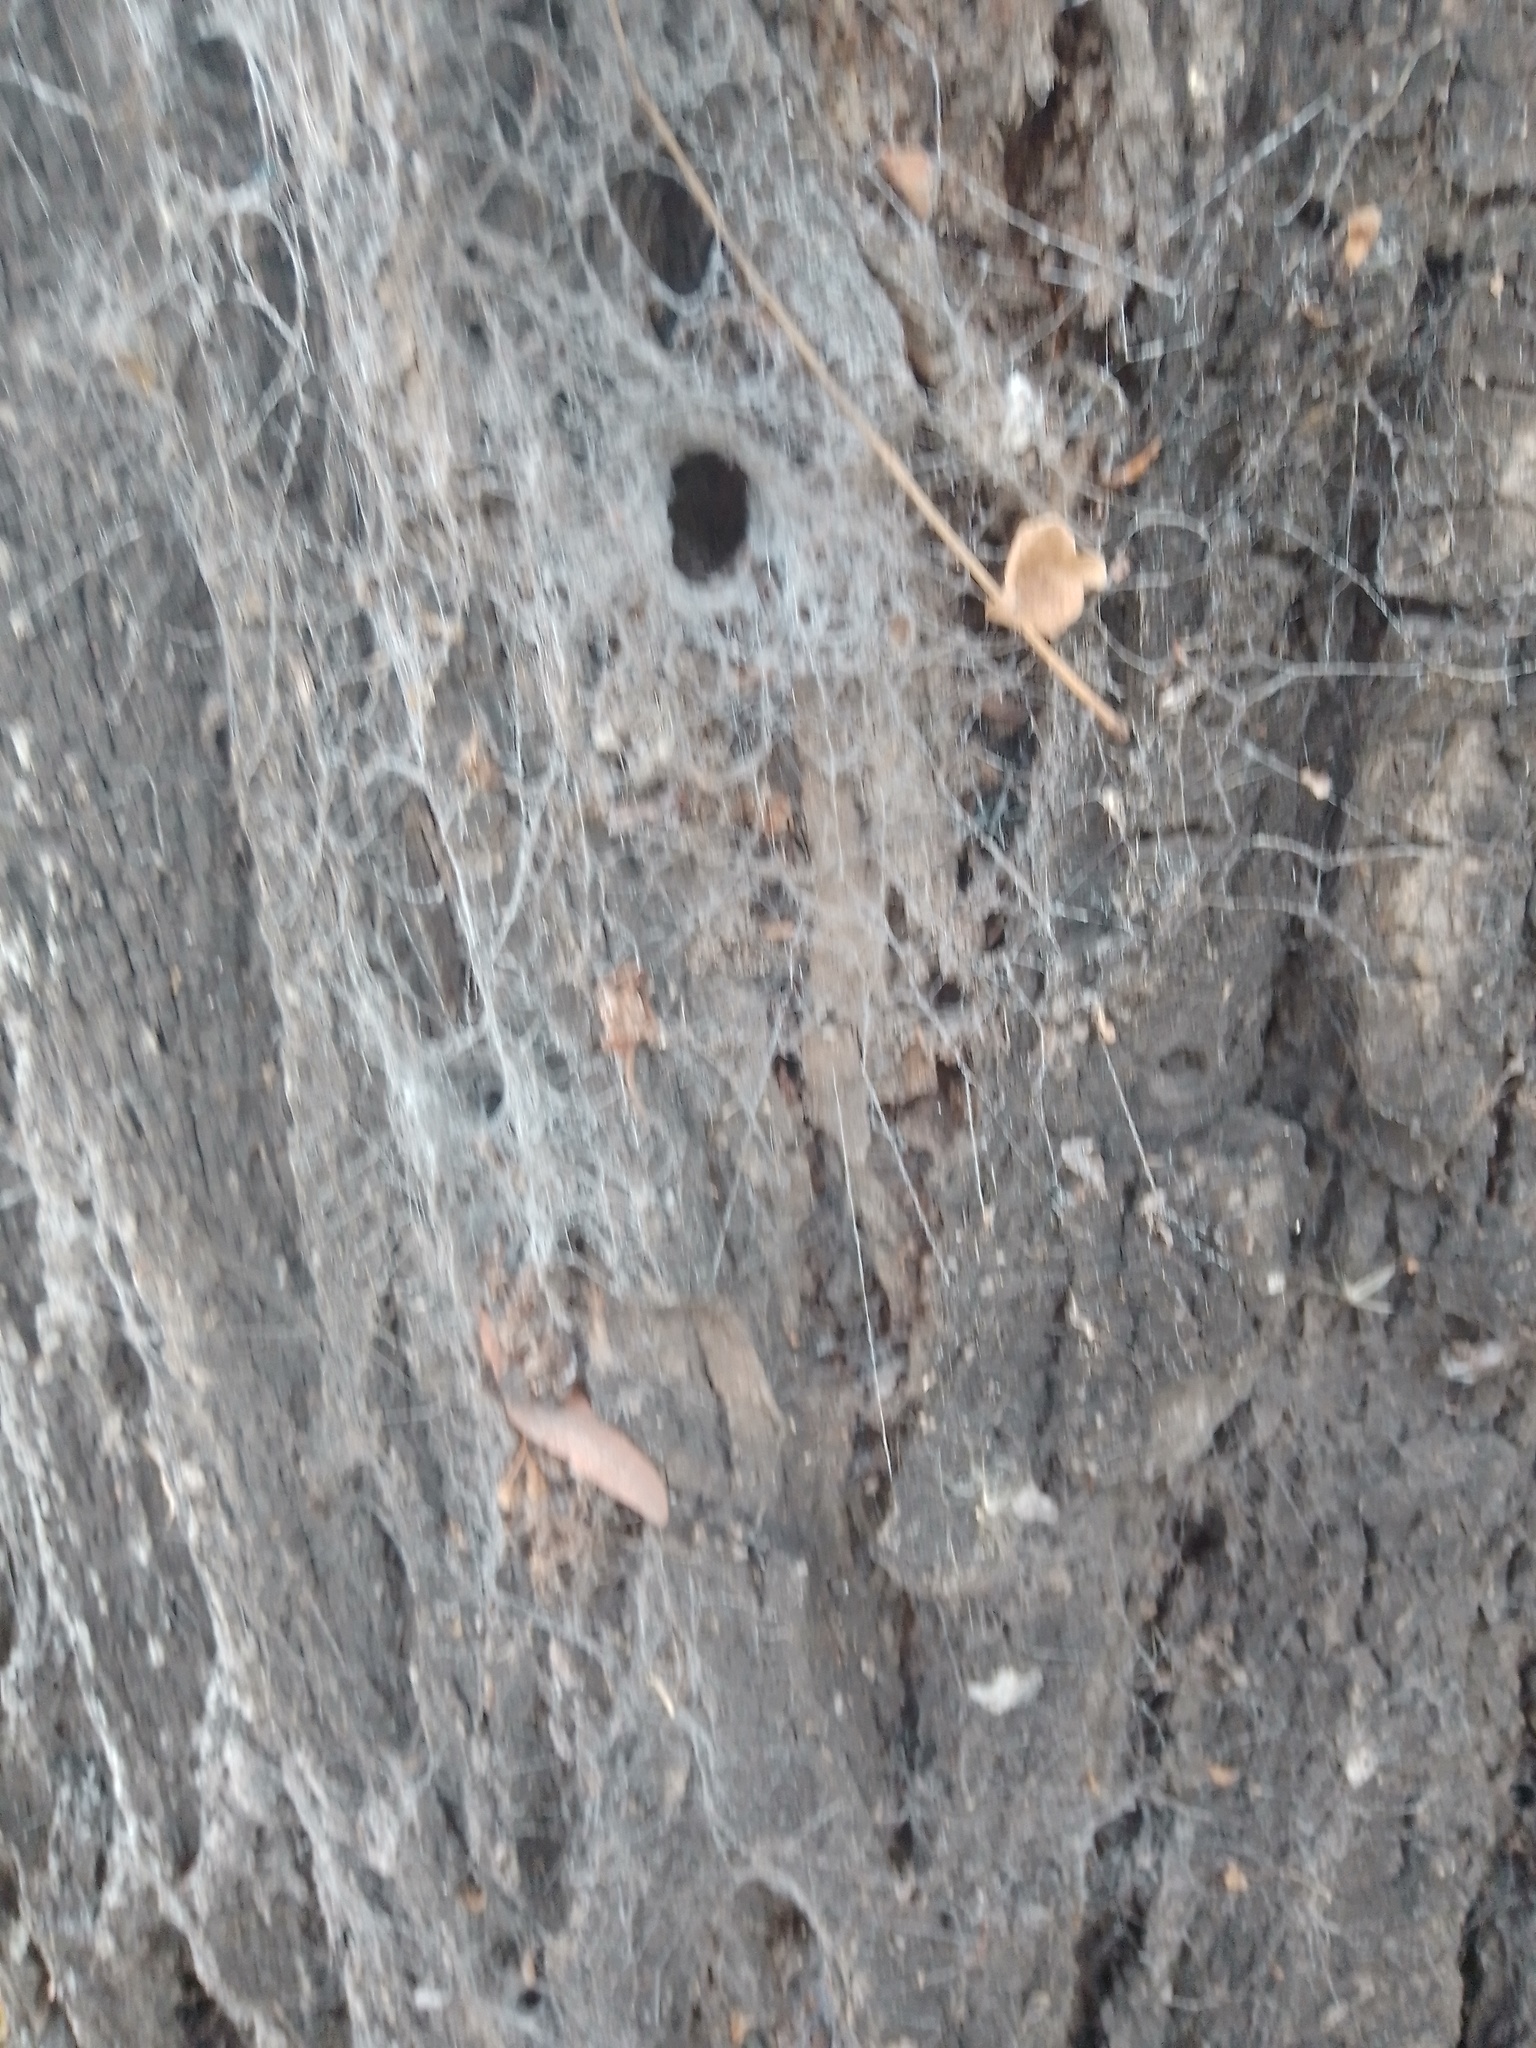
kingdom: Animalia
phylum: Arthropoda
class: Arachnida
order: Araneae
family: Filistatidae
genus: Kukulcania
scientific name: Kukulcania hibernalis
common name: Crevice weaver
